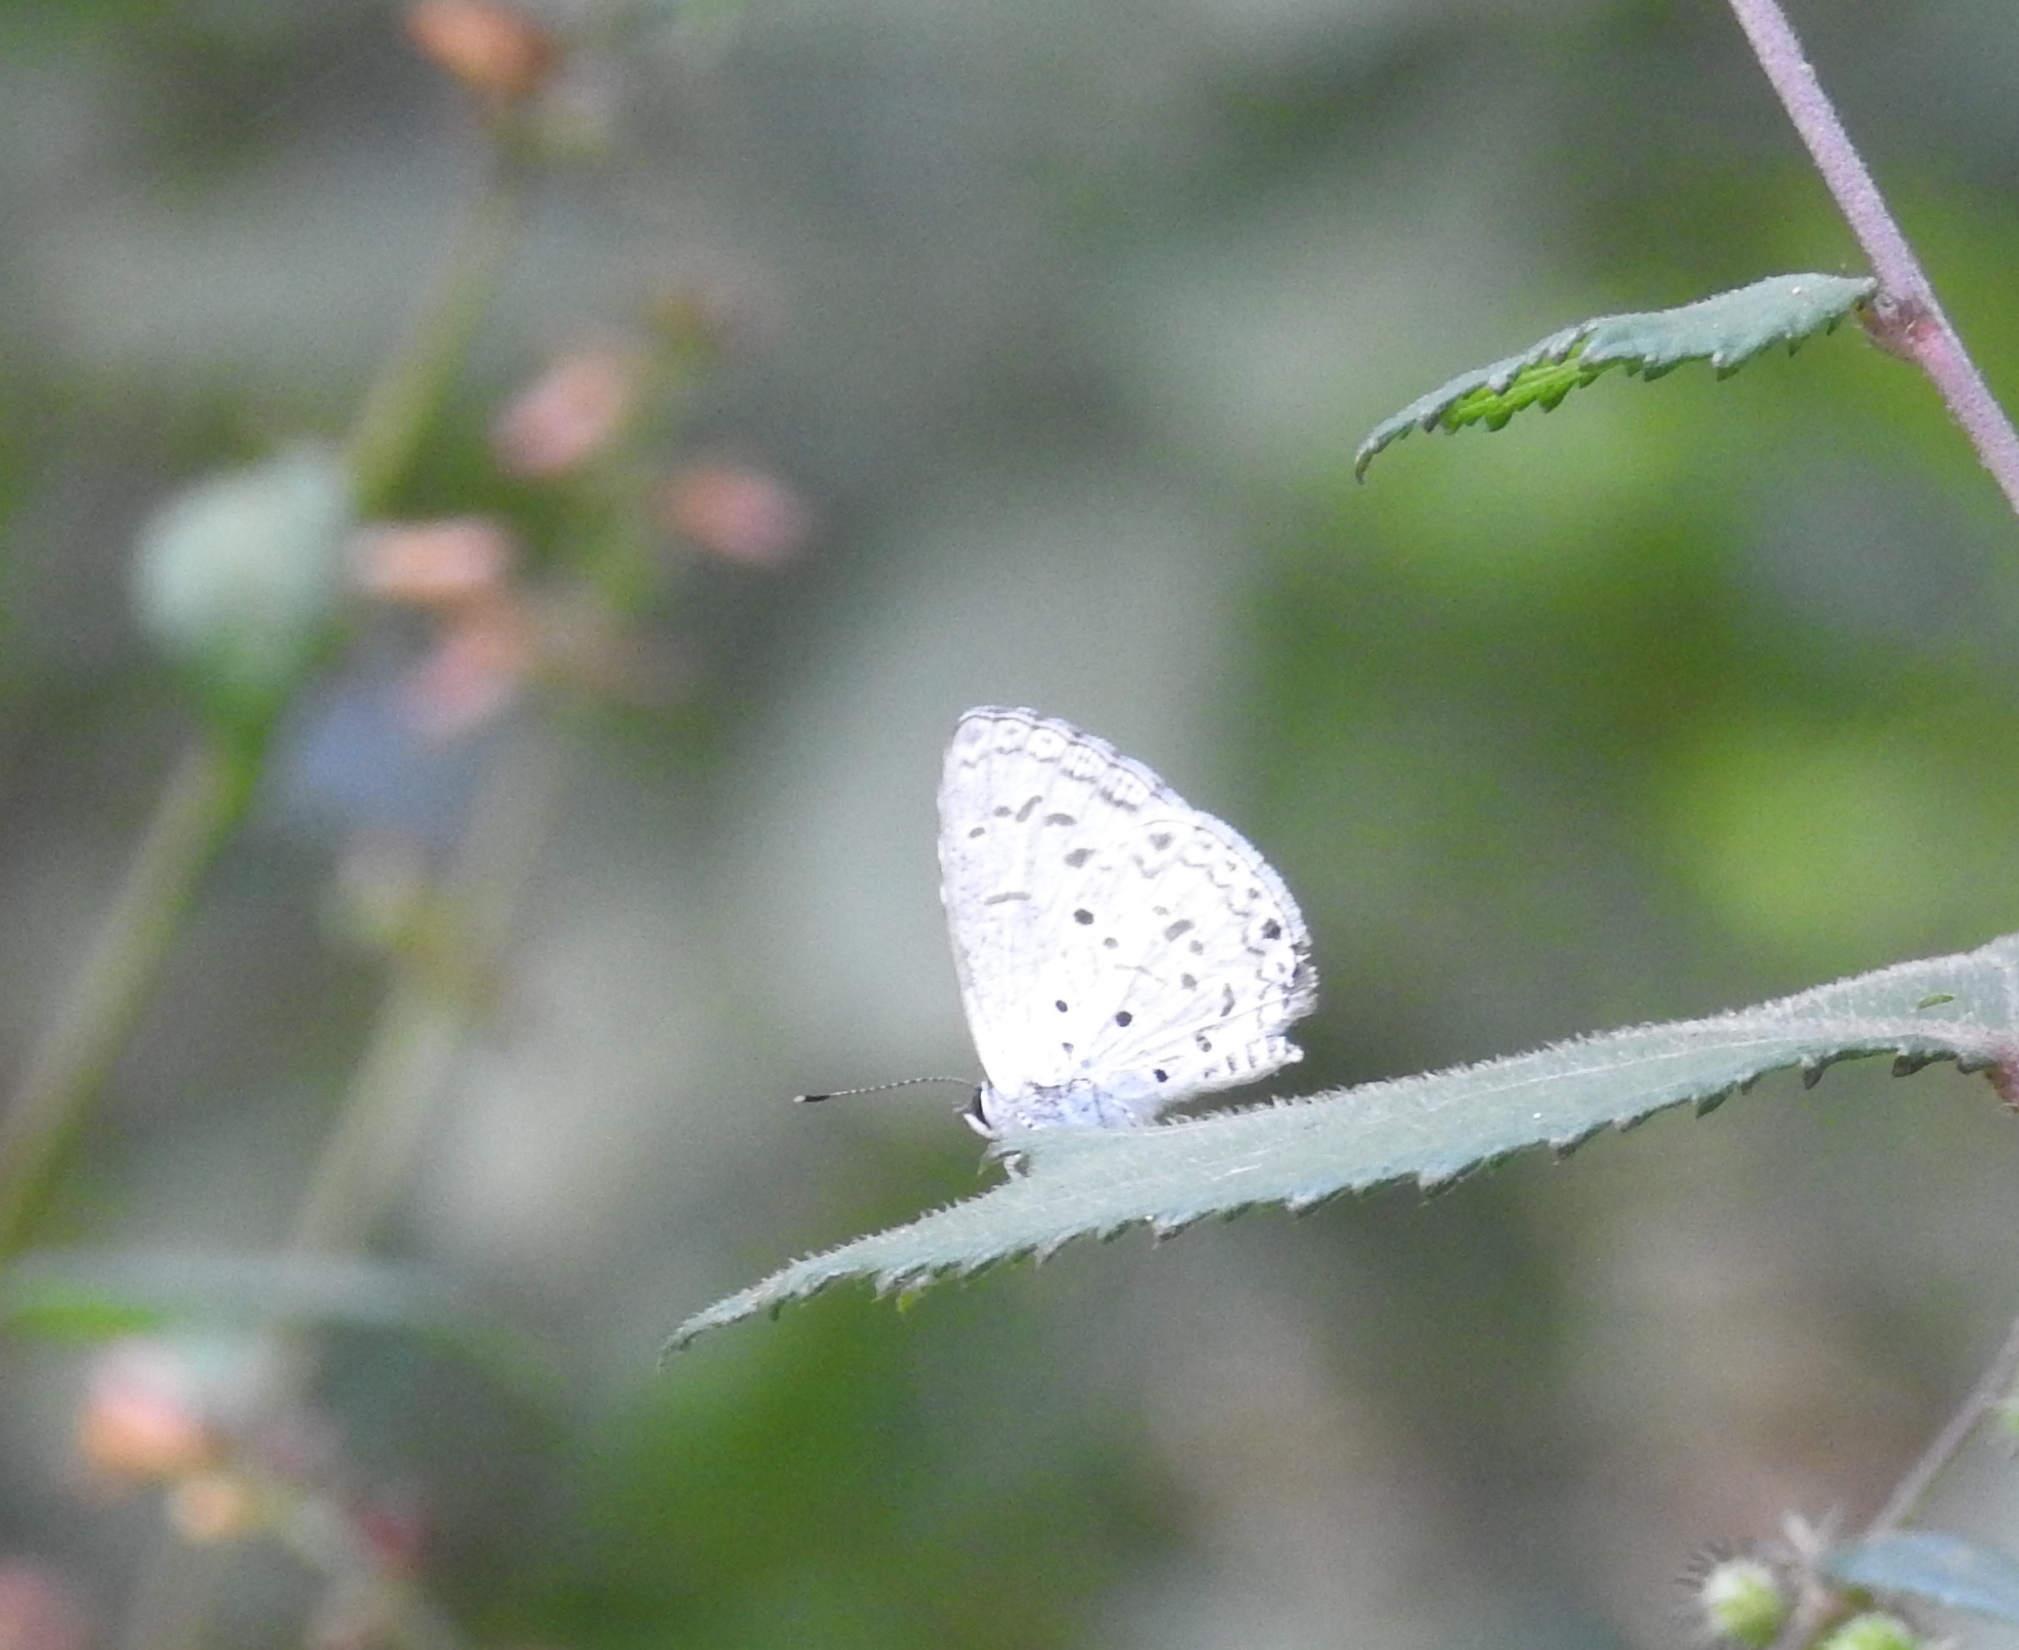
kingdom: Animalia
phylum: Arthropoda
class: Insecta
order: Lepidoptera
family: Lycaenidae
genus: Acytolepis
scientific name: Acytolepis puspa
